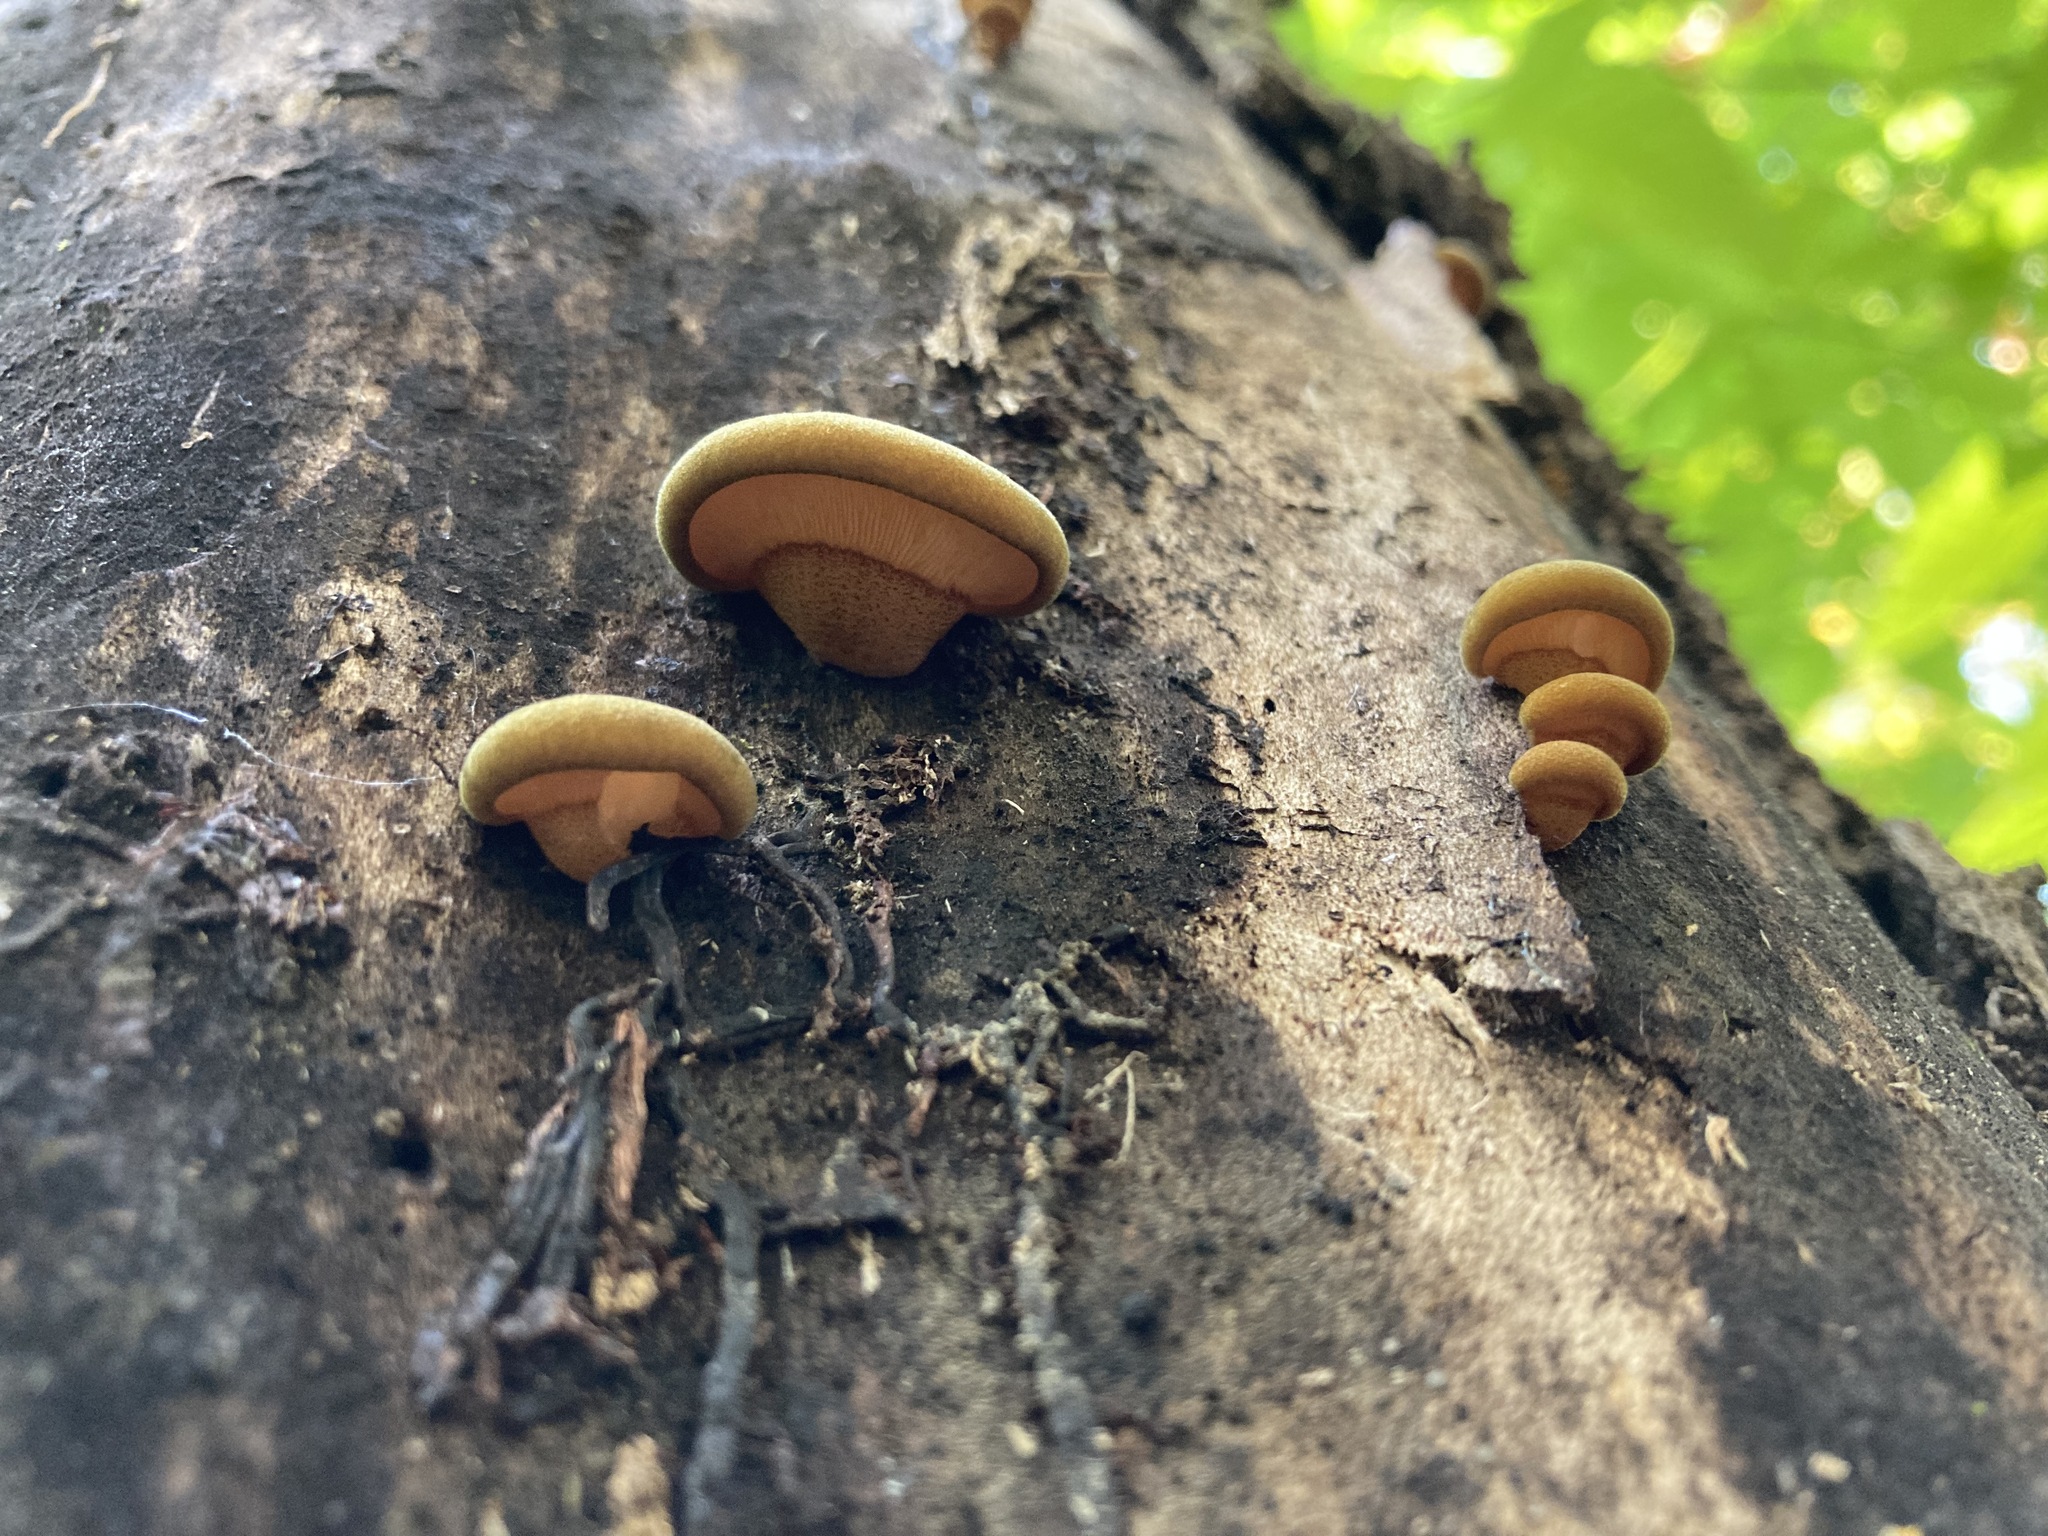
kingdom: Fungi
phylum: Basidiomycota
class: Agaricomycetes
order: Agaricales
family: Sarcomyxaceae
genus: Sarcomyxa
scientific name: Sarcomyxa serotina
